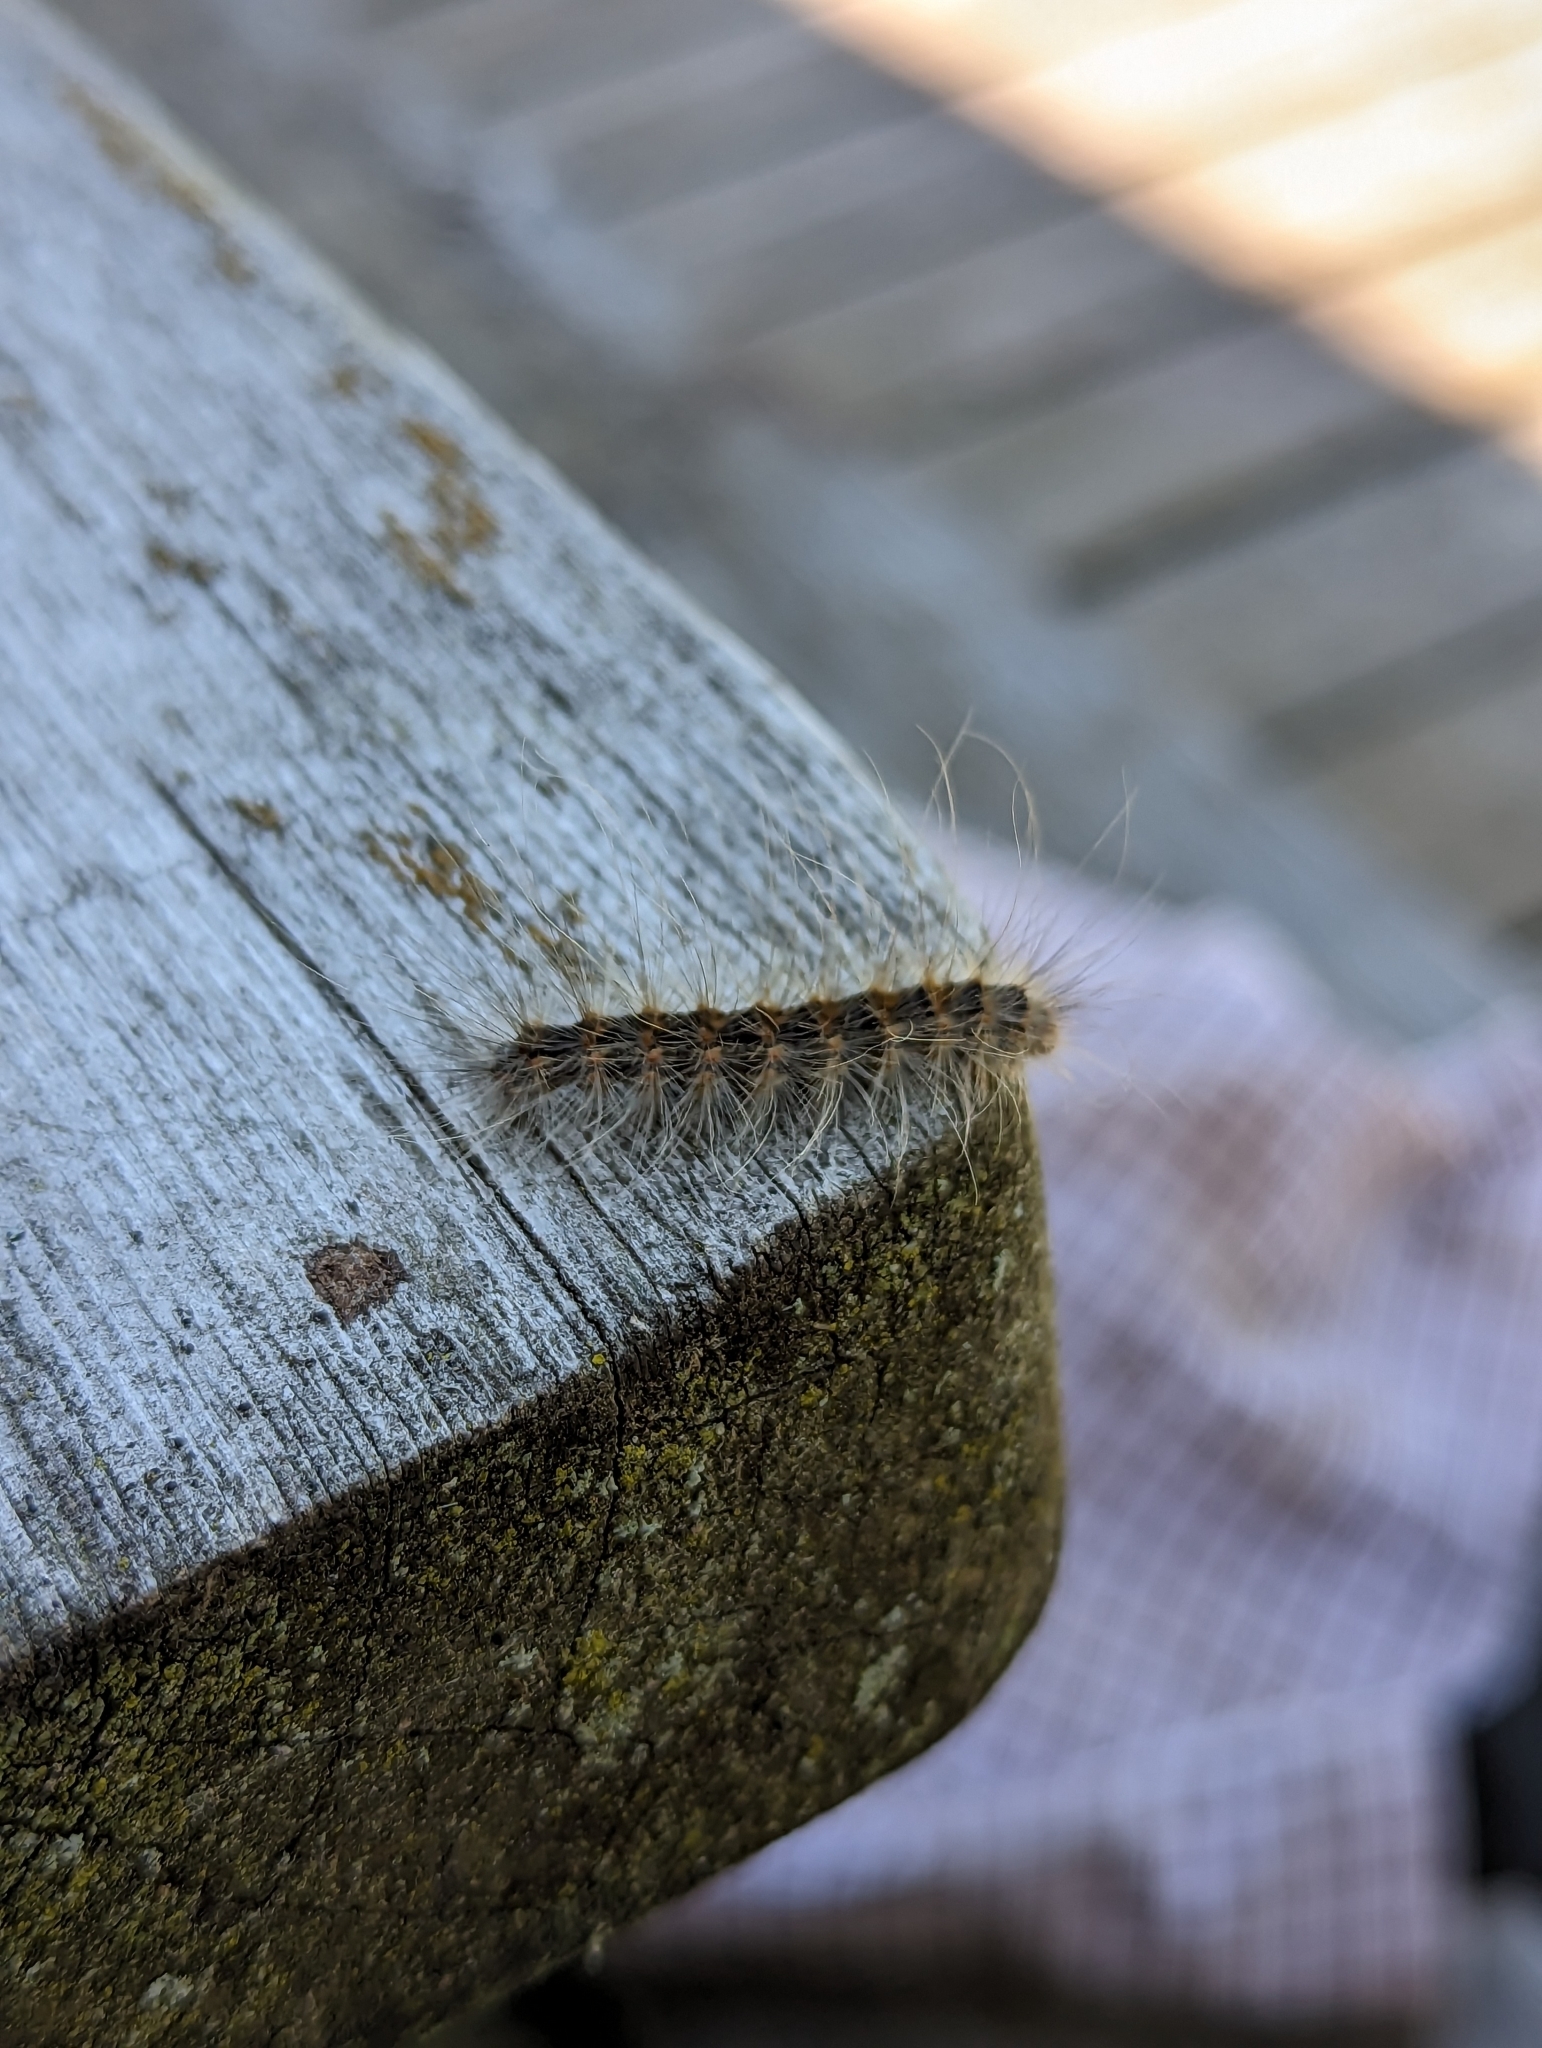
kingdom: Animalia
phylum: Arthropoda
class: Insecta
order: Lepidoptera
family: Erebidae
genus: Hyphantria
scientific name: Hyphantria cunea
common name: American white moth
